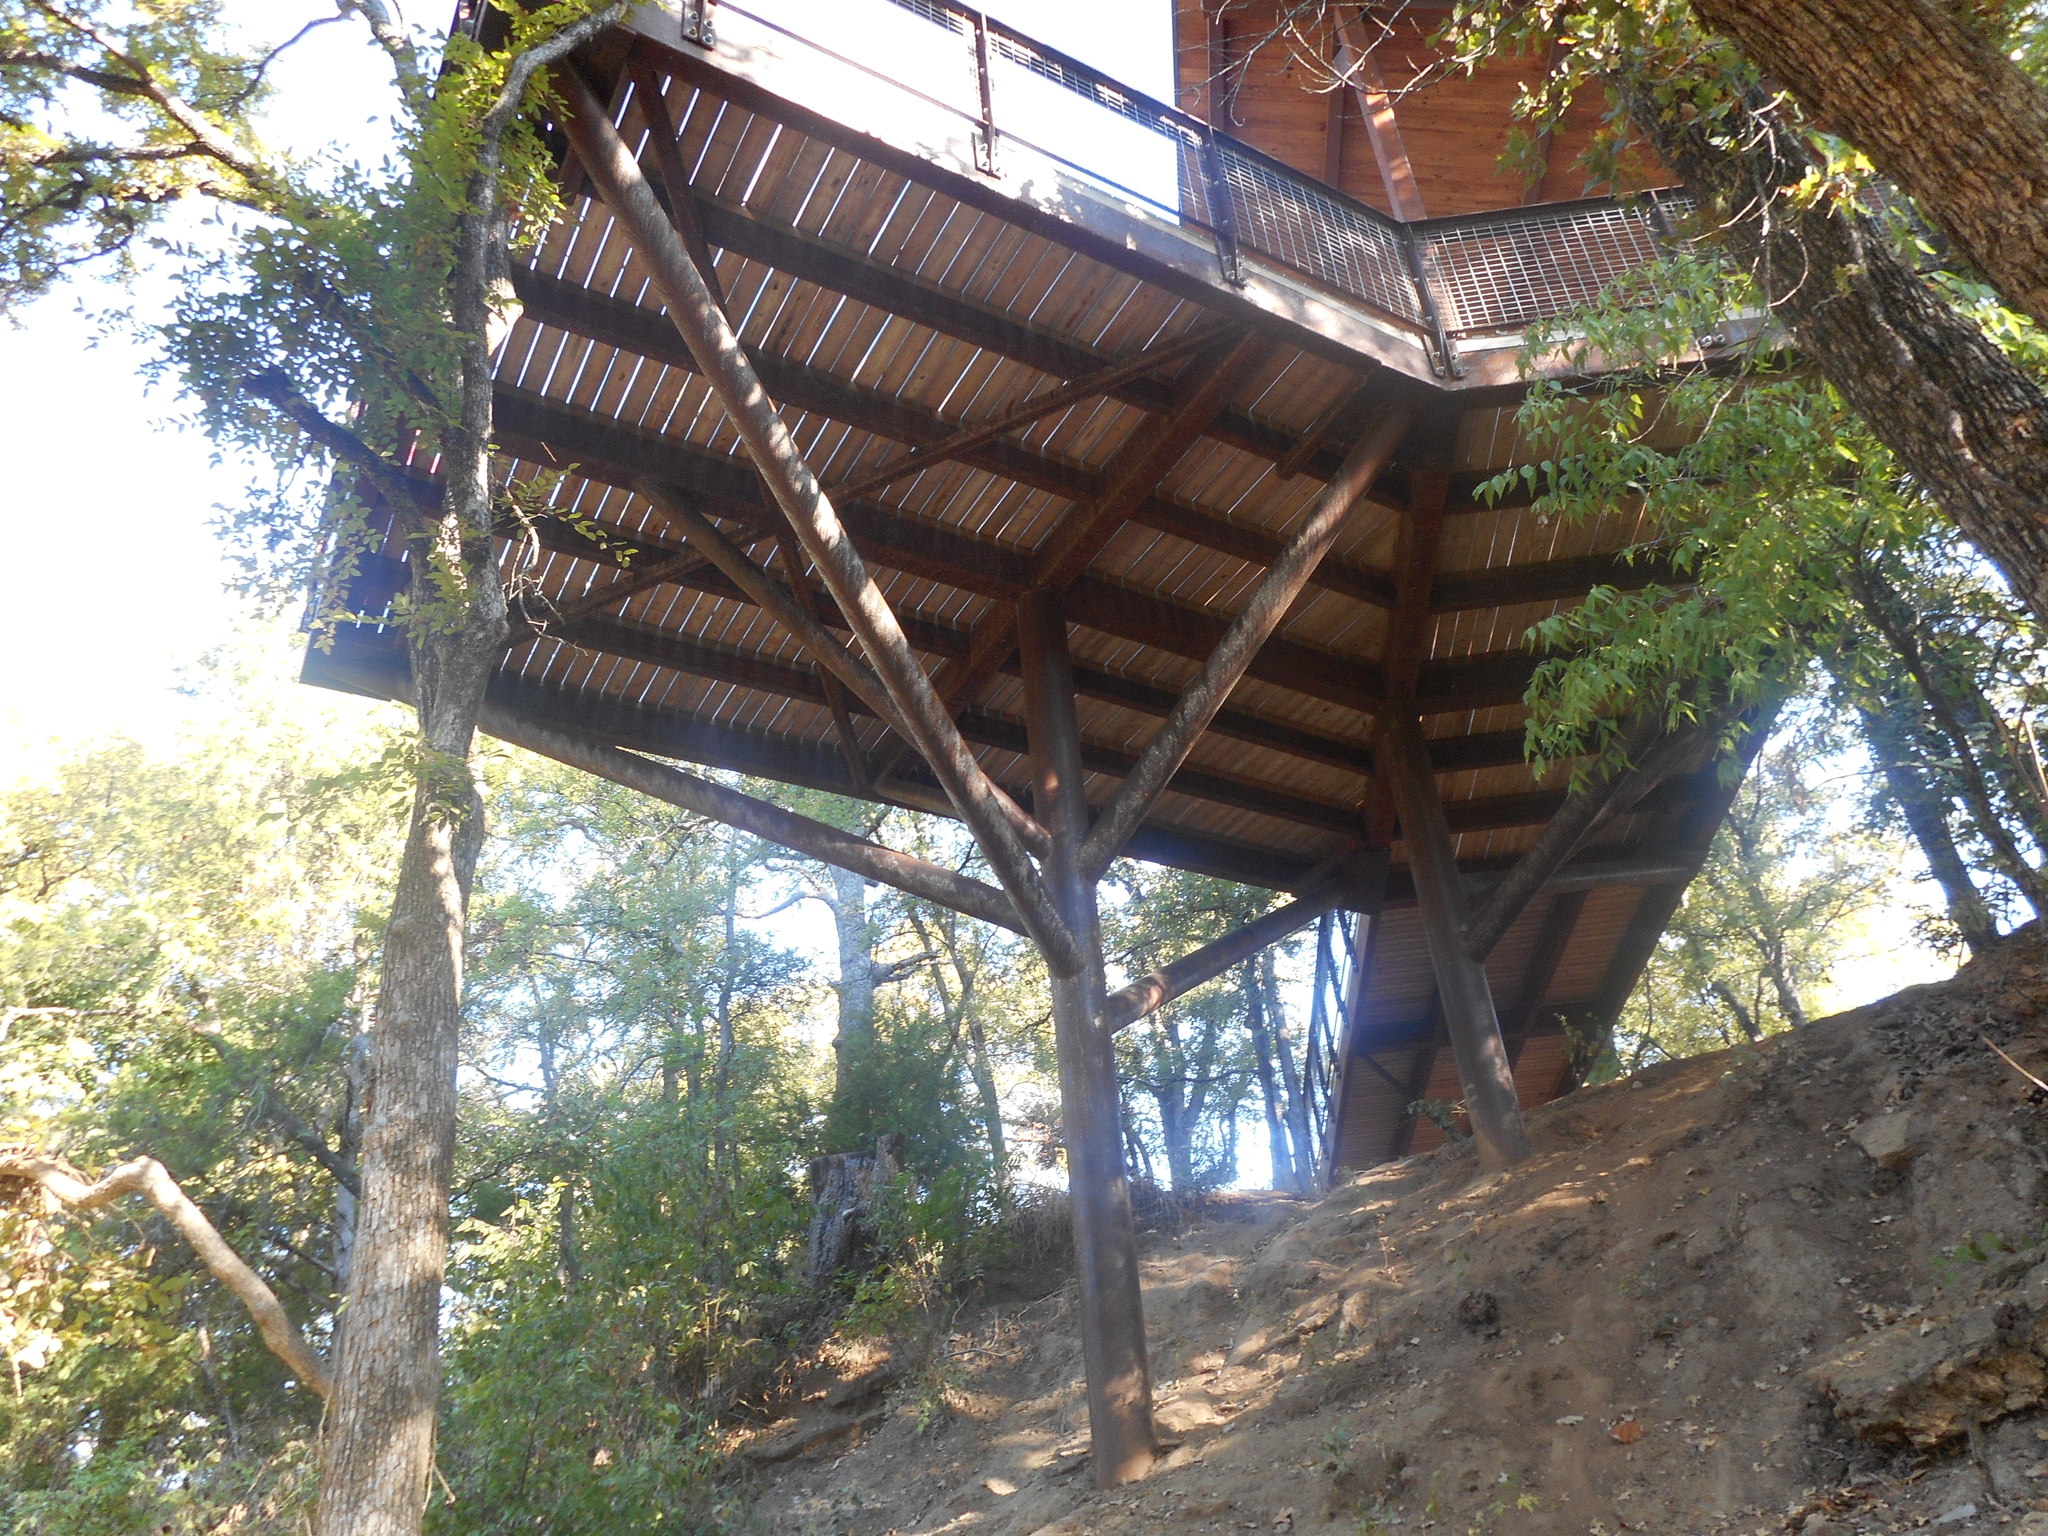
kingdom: Plantae
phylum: Tracheophyta
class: Magnoliopsida
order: Rosales
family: Ulmaceae
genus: Ulmus
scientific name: Ulmus crassifolia
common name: Basket elm
